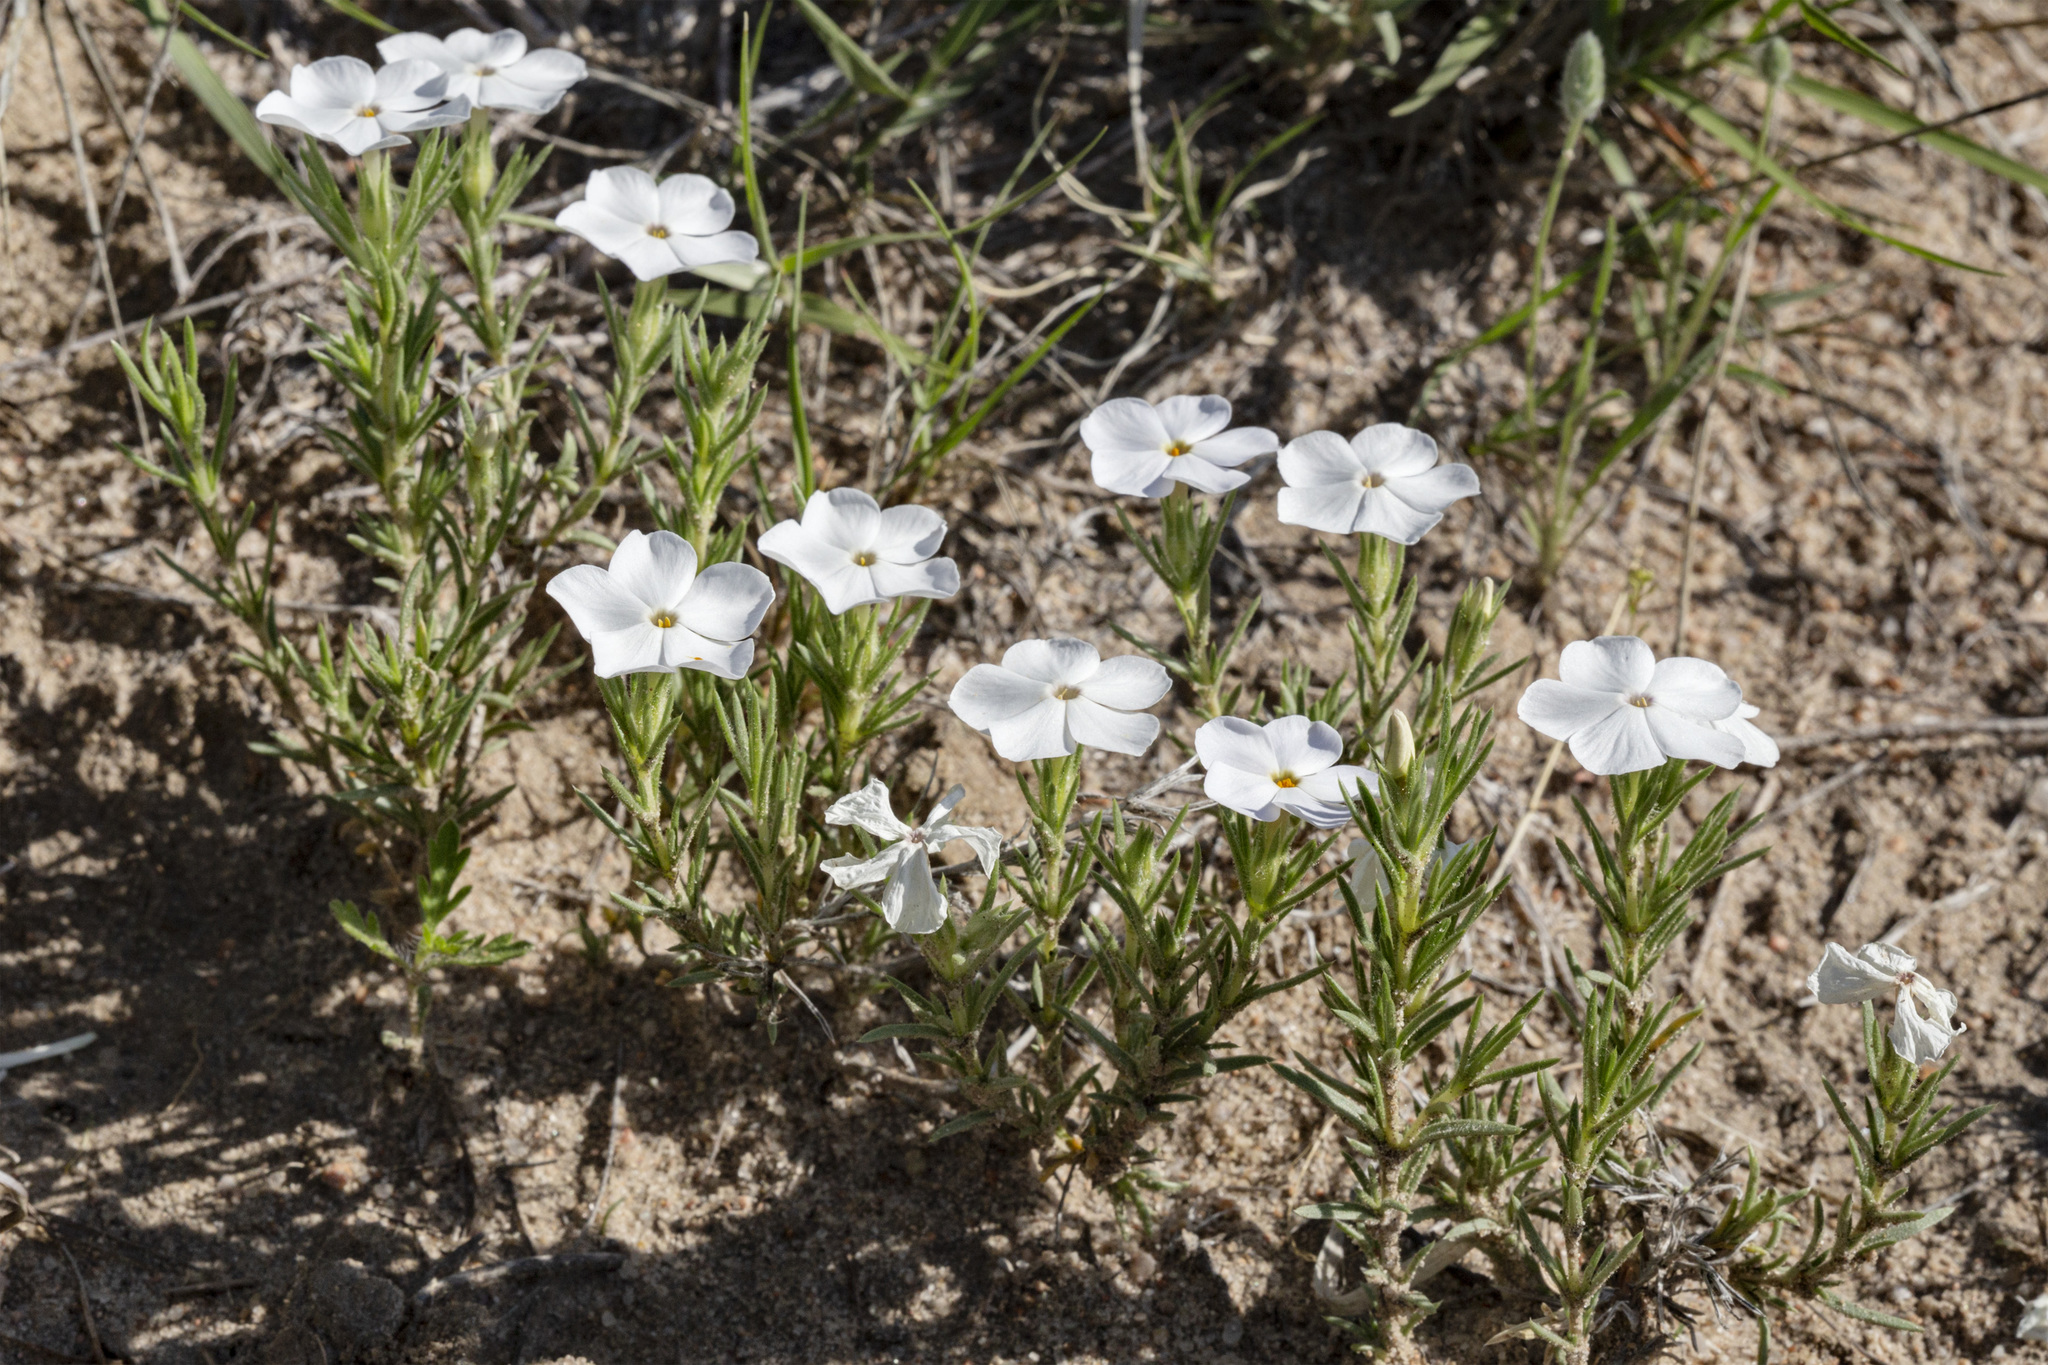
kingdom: Plantae
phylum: Tracheophyta
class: Magnoliopsida
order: Ericales
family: Polemoniaceae
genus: Phlox
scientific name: Phlox andicola
